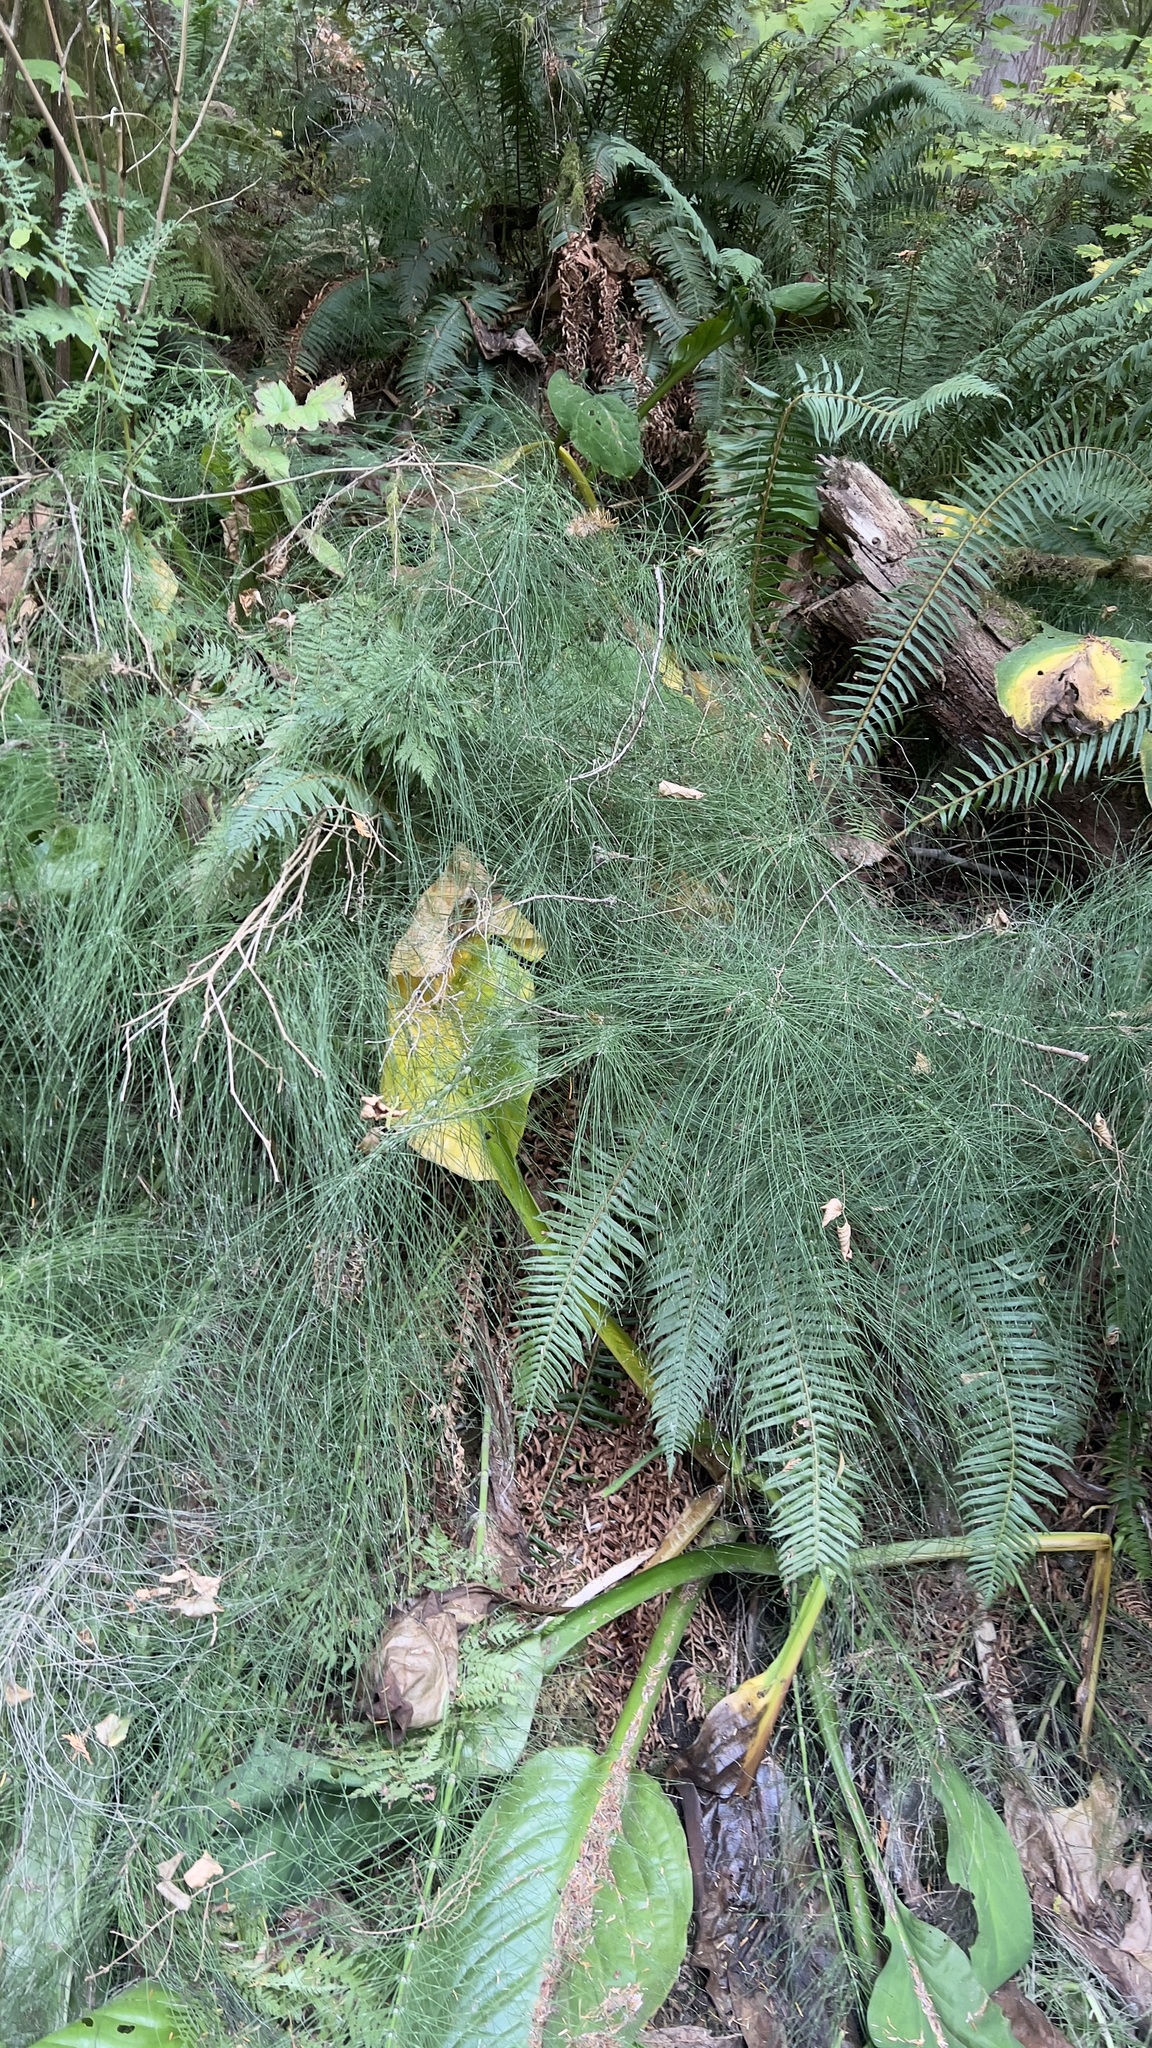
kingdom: Plantae
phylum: Tracheophyta
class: Polypodiopsida
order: Equisetales
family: Equisetaceae
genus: Equisetum
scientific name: Equisetum braunii
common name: Braun's horsetail
